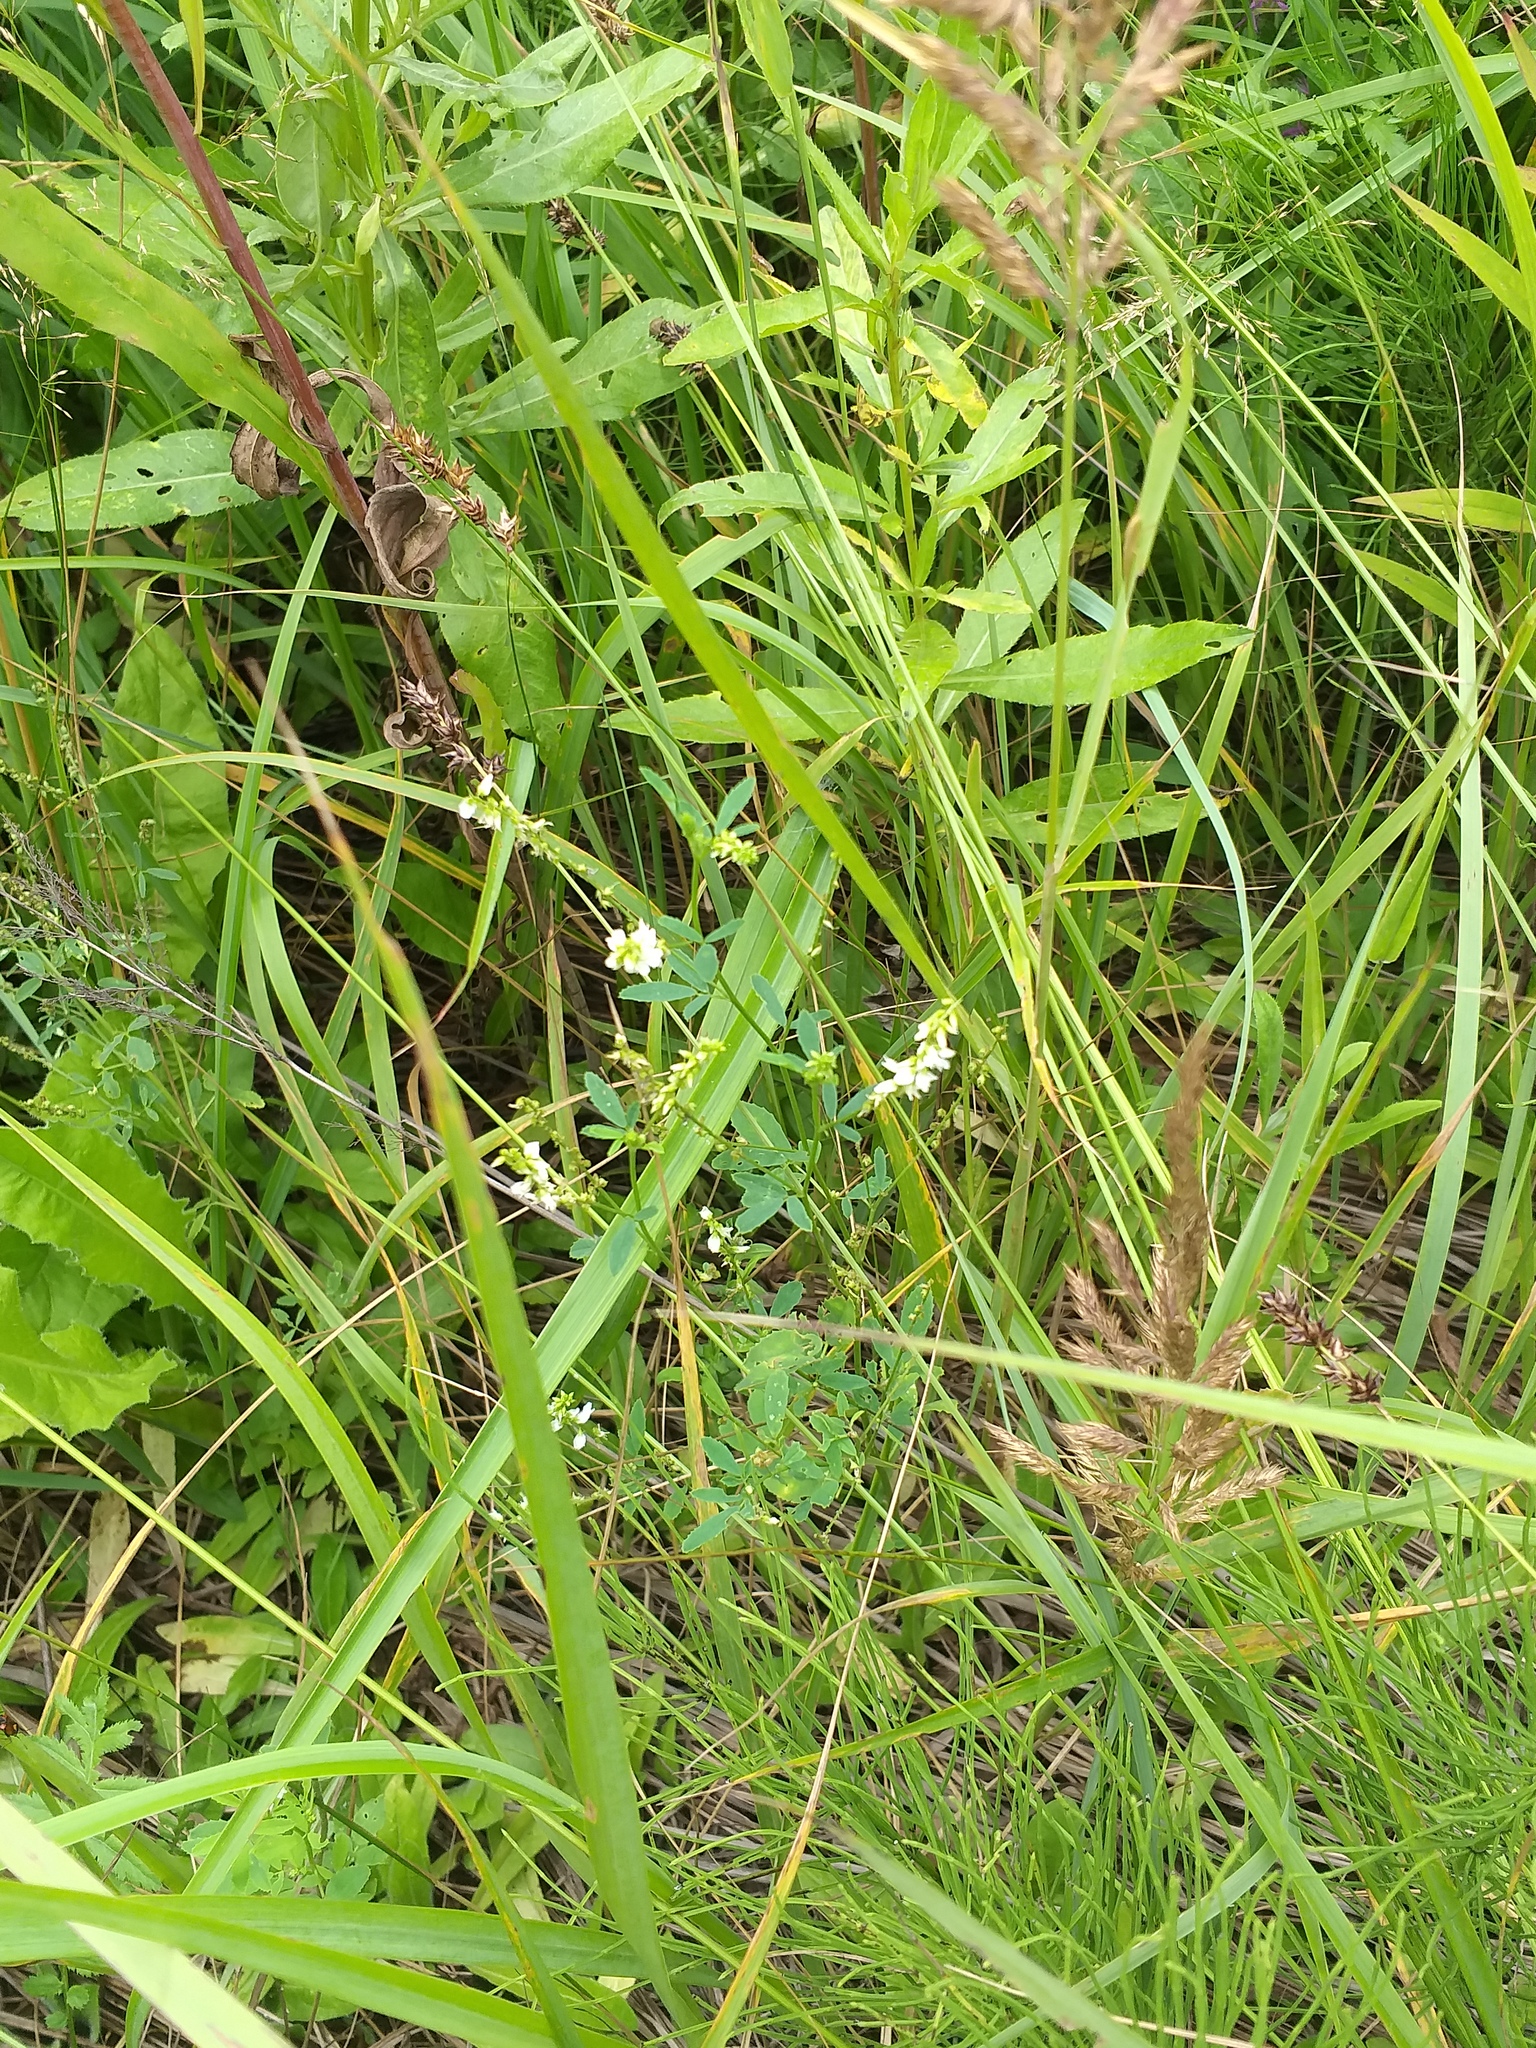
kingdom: Plantae
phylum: Tracheophyta
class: Magnoliopsida
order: Fabales
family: Fabaceae
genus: Melilotus
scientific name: Melilotus albus
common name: White melilot
